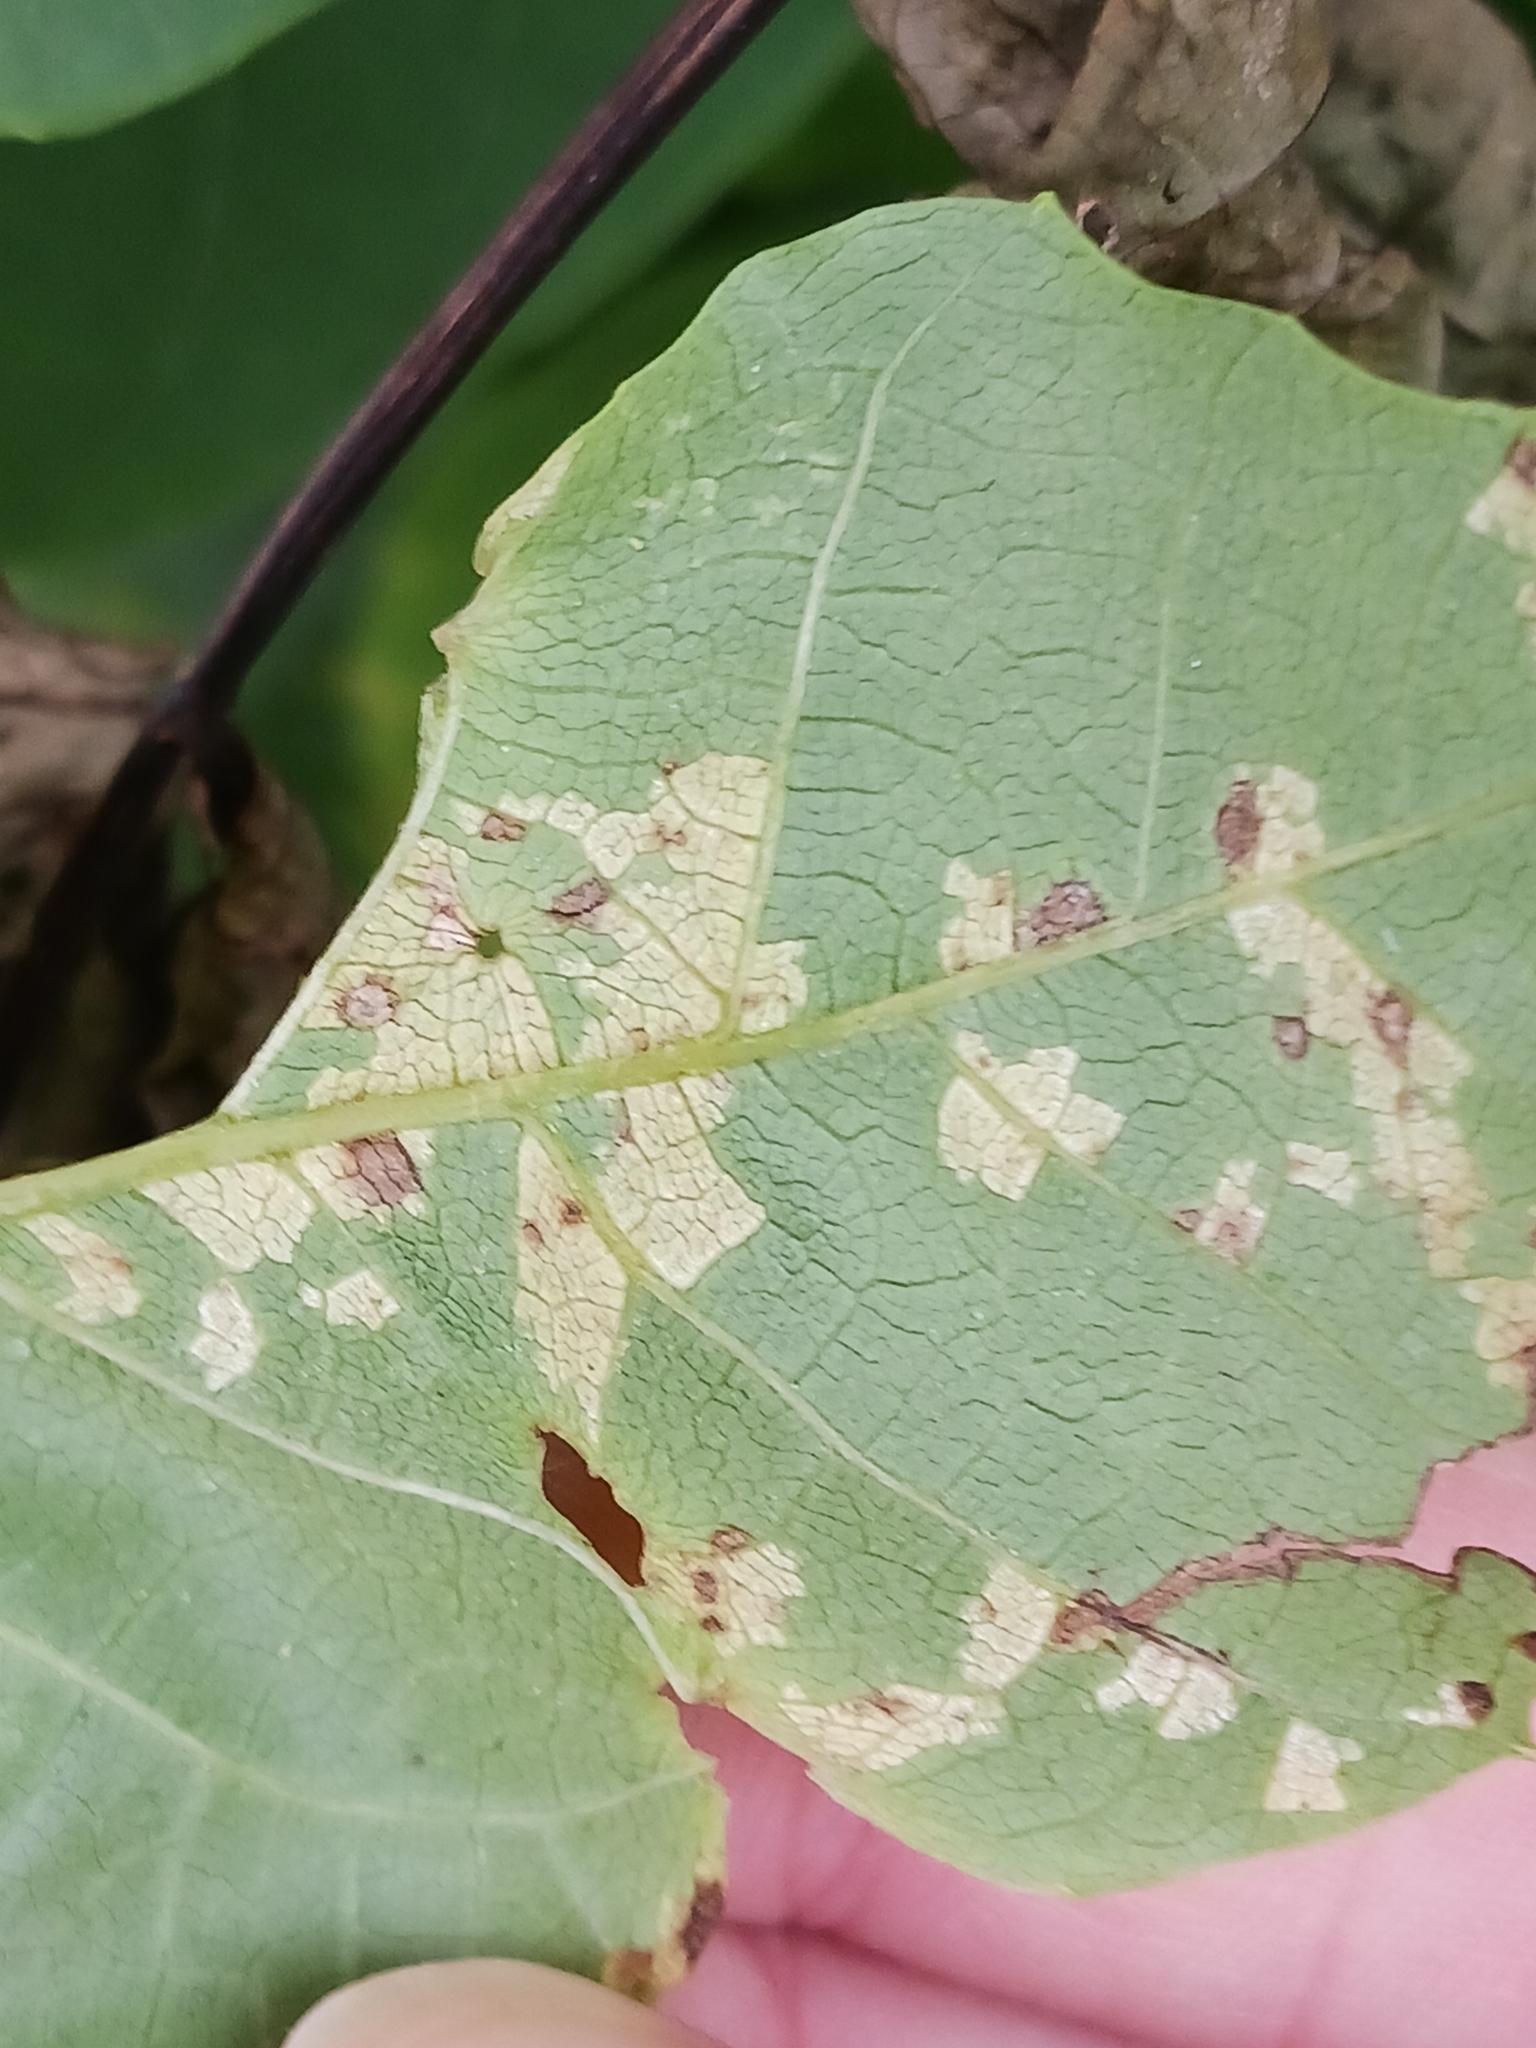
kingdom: Fungi
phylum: Basidiomycota
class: Exobasidiomycetes
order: Microstromatales
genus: Pseudomicrostroma
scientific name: Pseudomicrostroma juglandis
